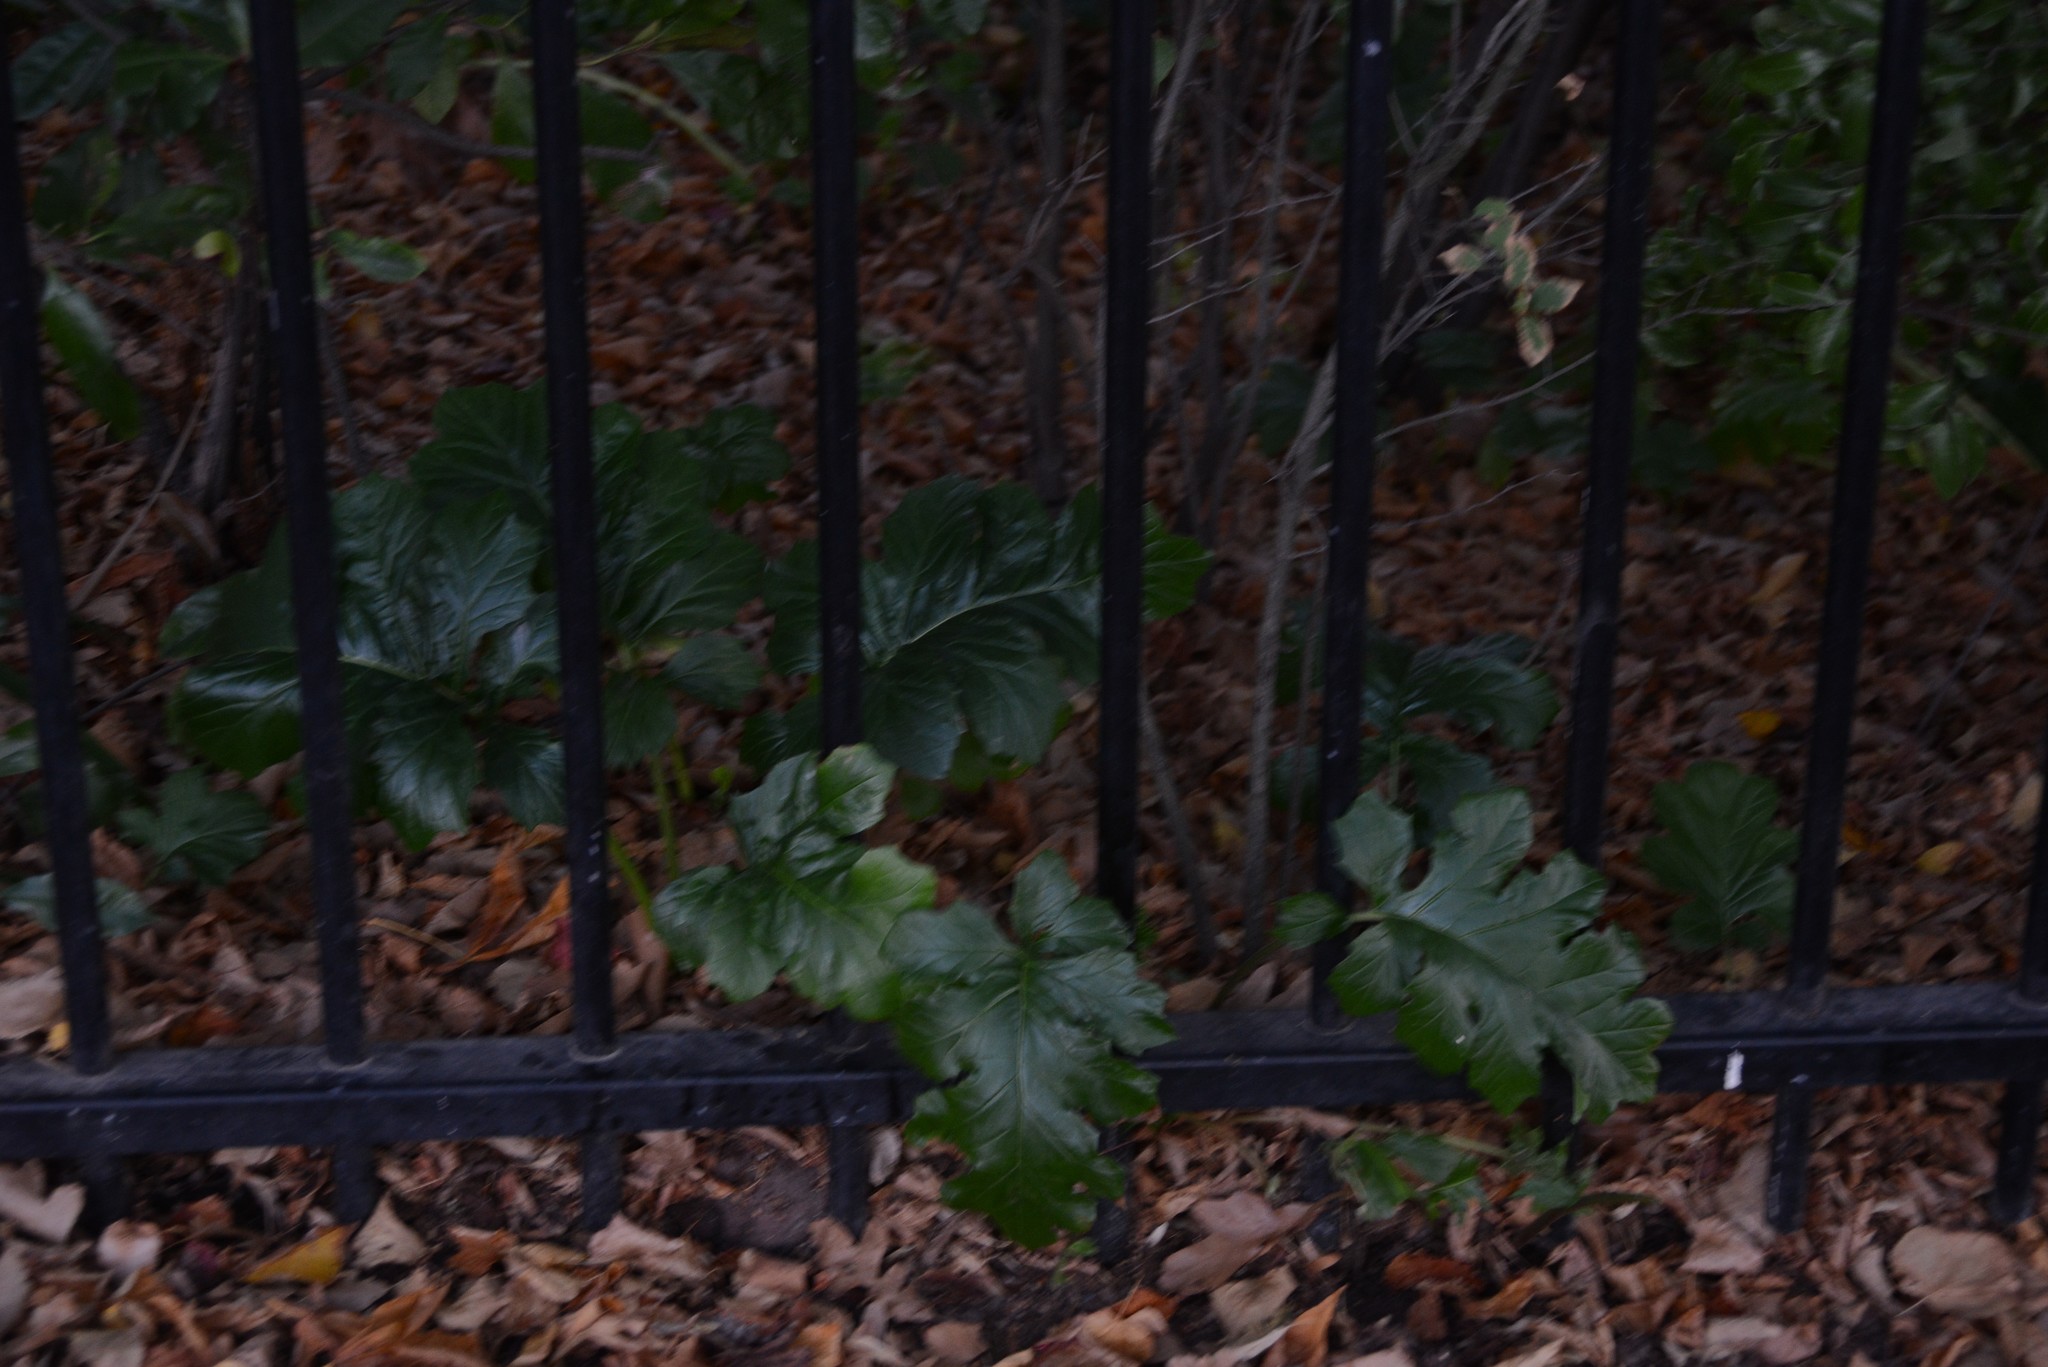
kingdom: Plantae
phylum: Tracheophyta
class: Magnoliopsida
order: Lamiales
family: Acanthaceae
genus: Acanthus
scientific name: Acanthus mollis
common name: Bear's-breech
